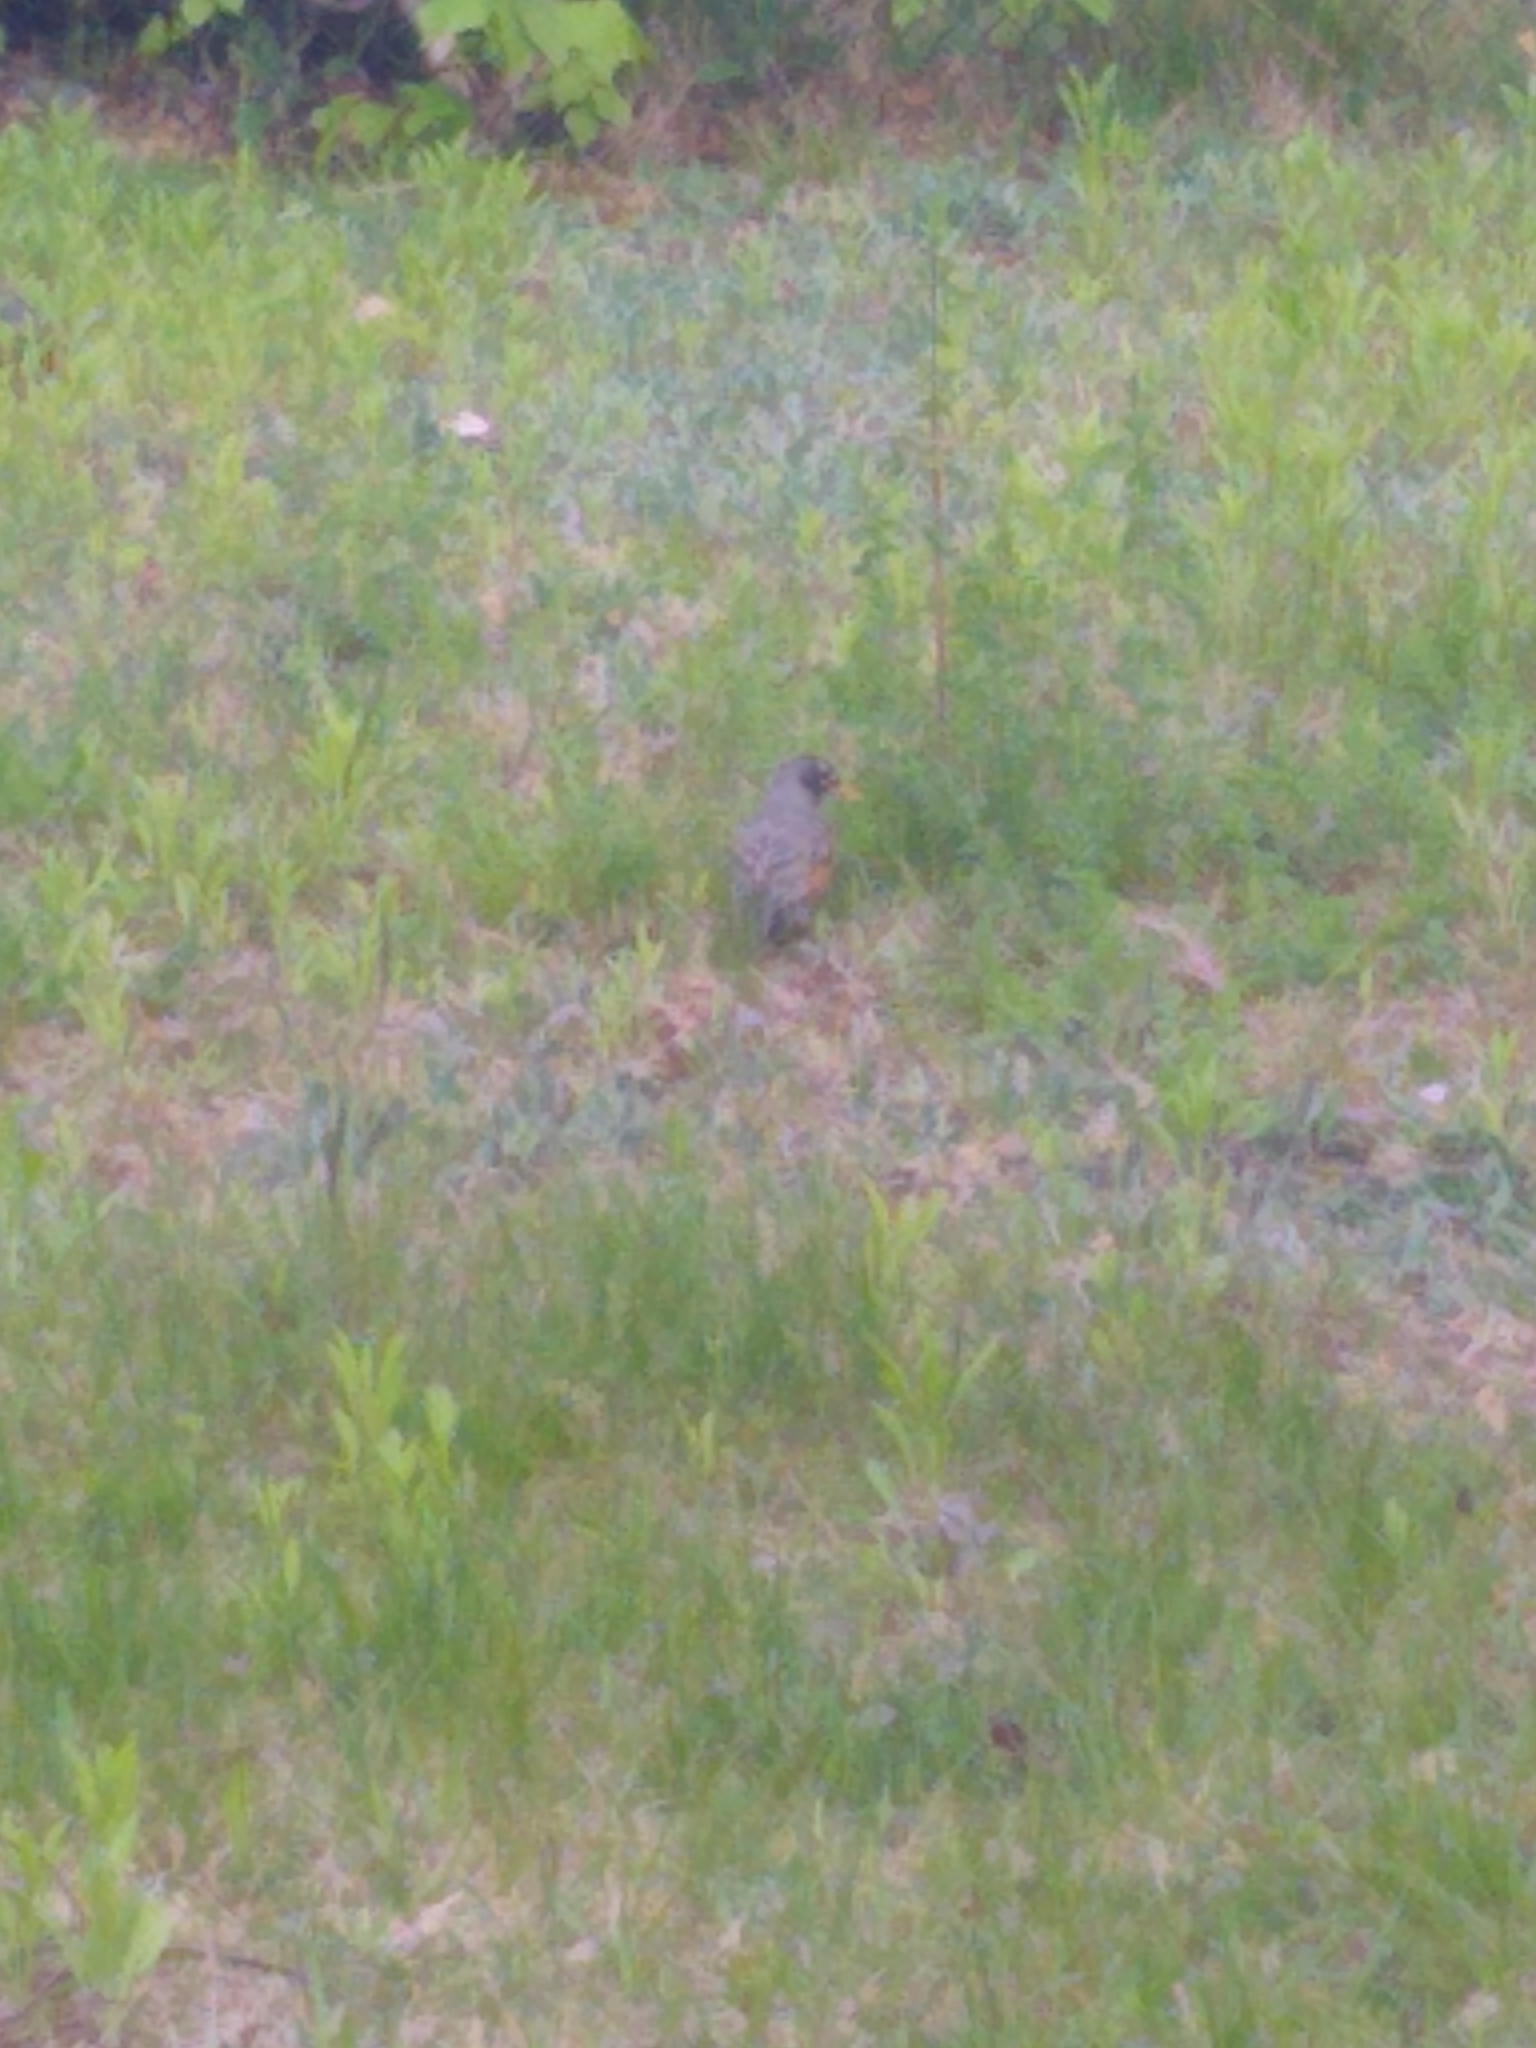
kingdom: Animalia
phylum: Chordata
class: Aves
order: Passeriformes
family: Turdidae
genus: Turdus
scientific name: Turdus migratorius
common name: American robin
